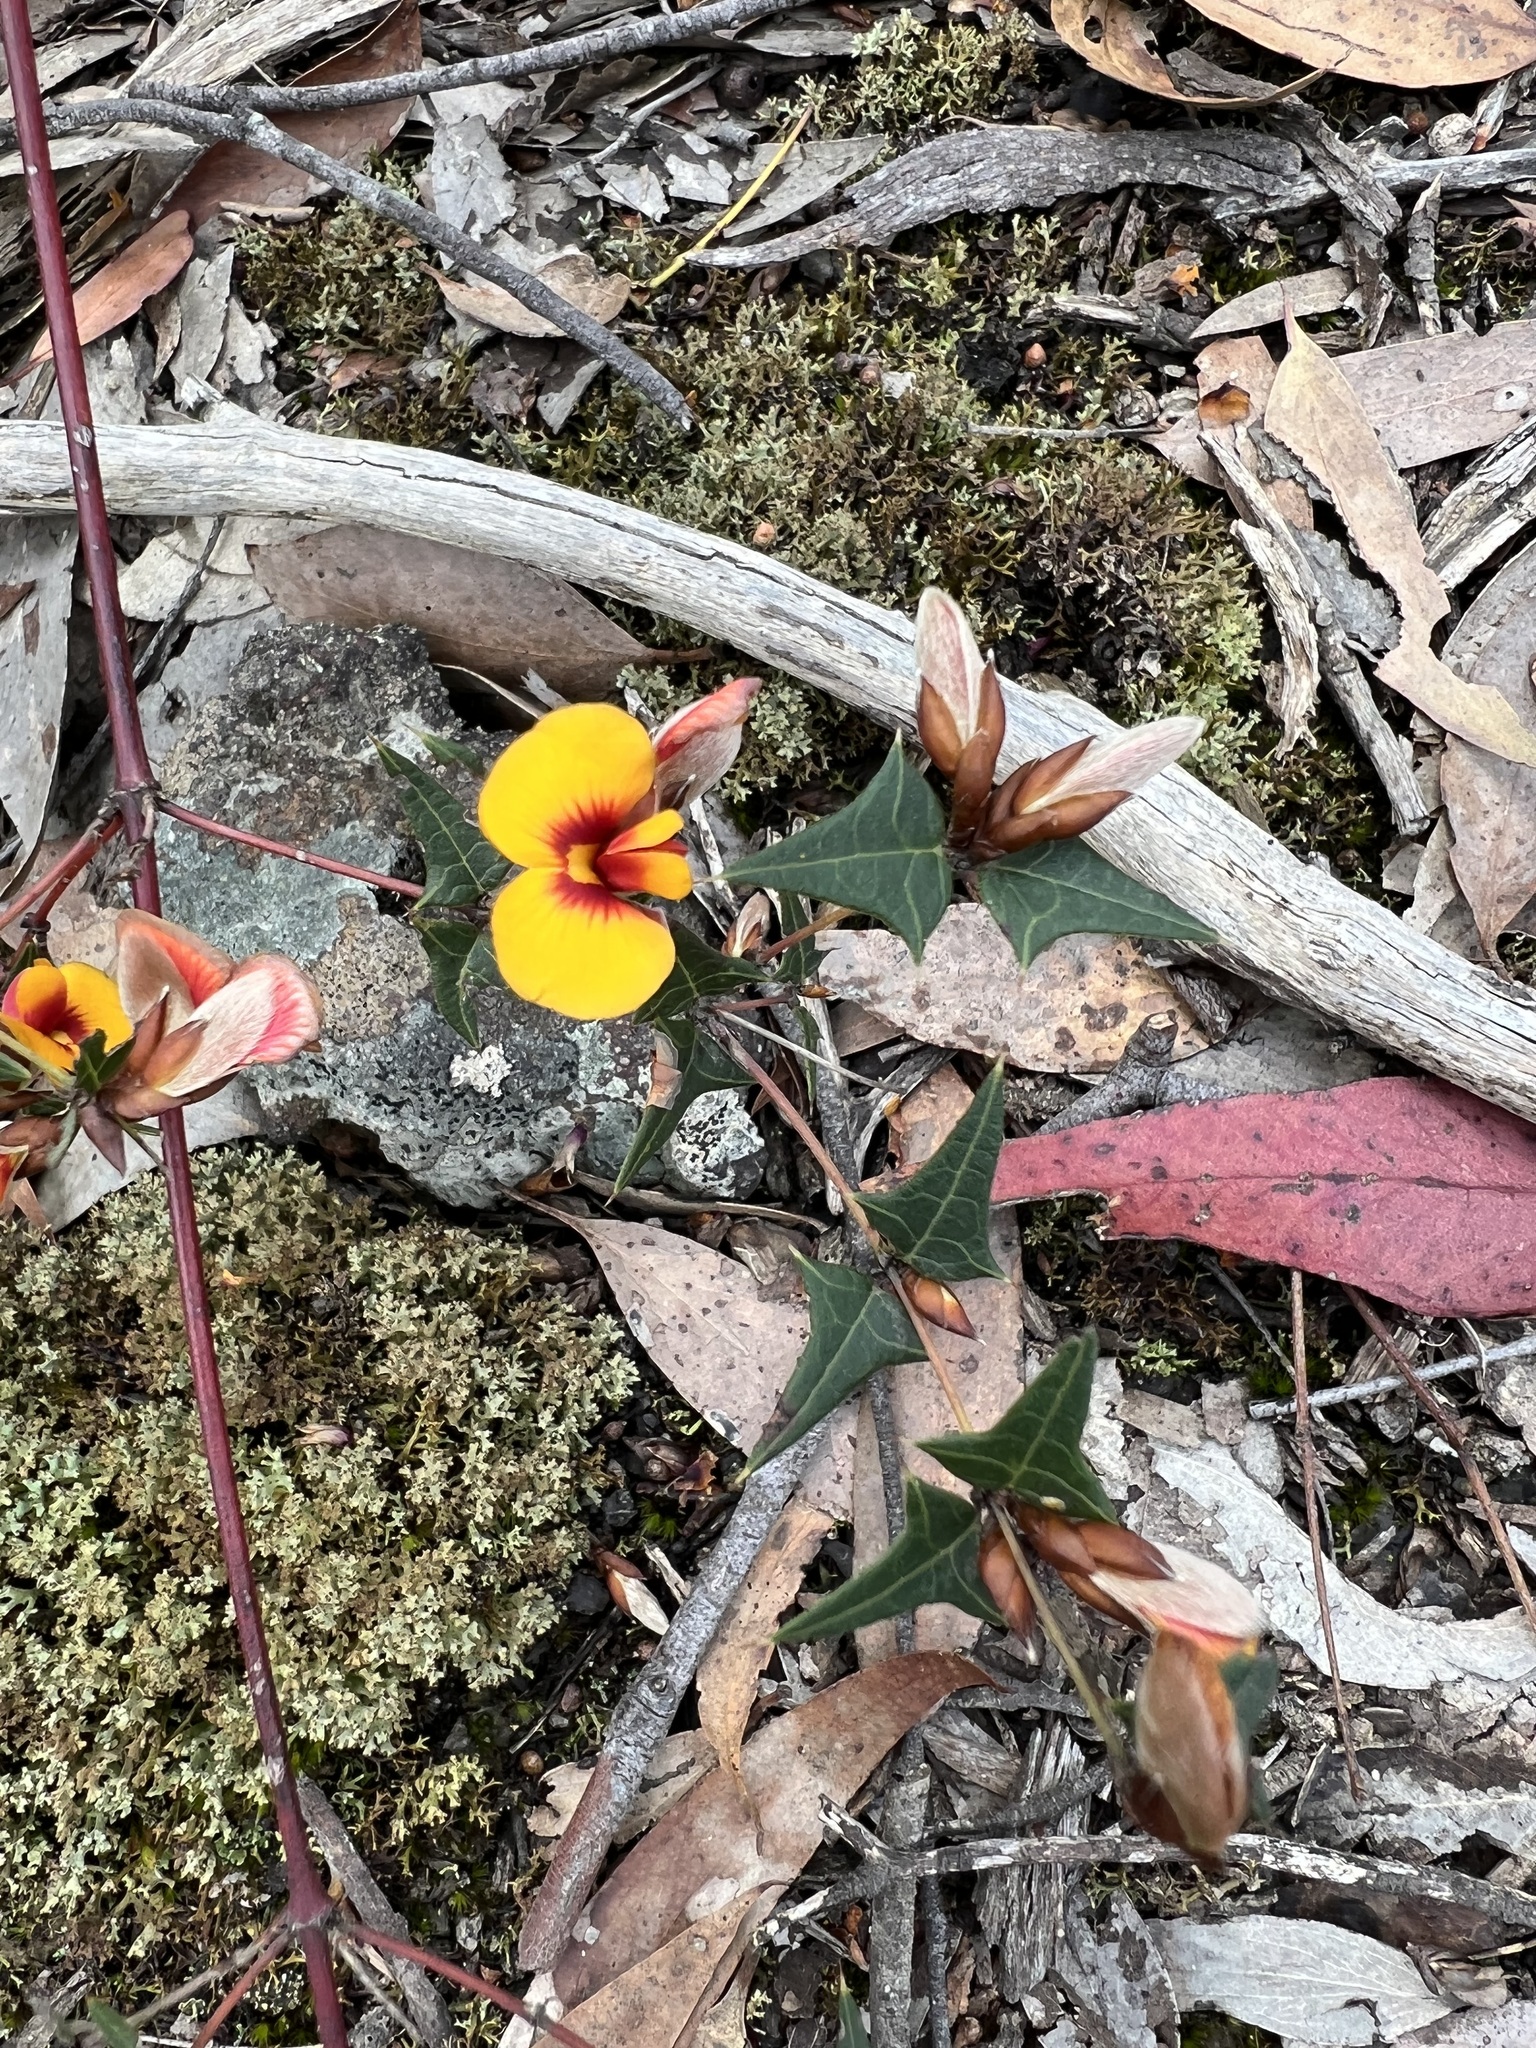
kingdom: Plantae
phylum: Tracheophyta
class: Magnoliopsida
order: Fabales
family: Fabaceae
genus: Platylobium
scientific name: Platylobium obtusangulum
